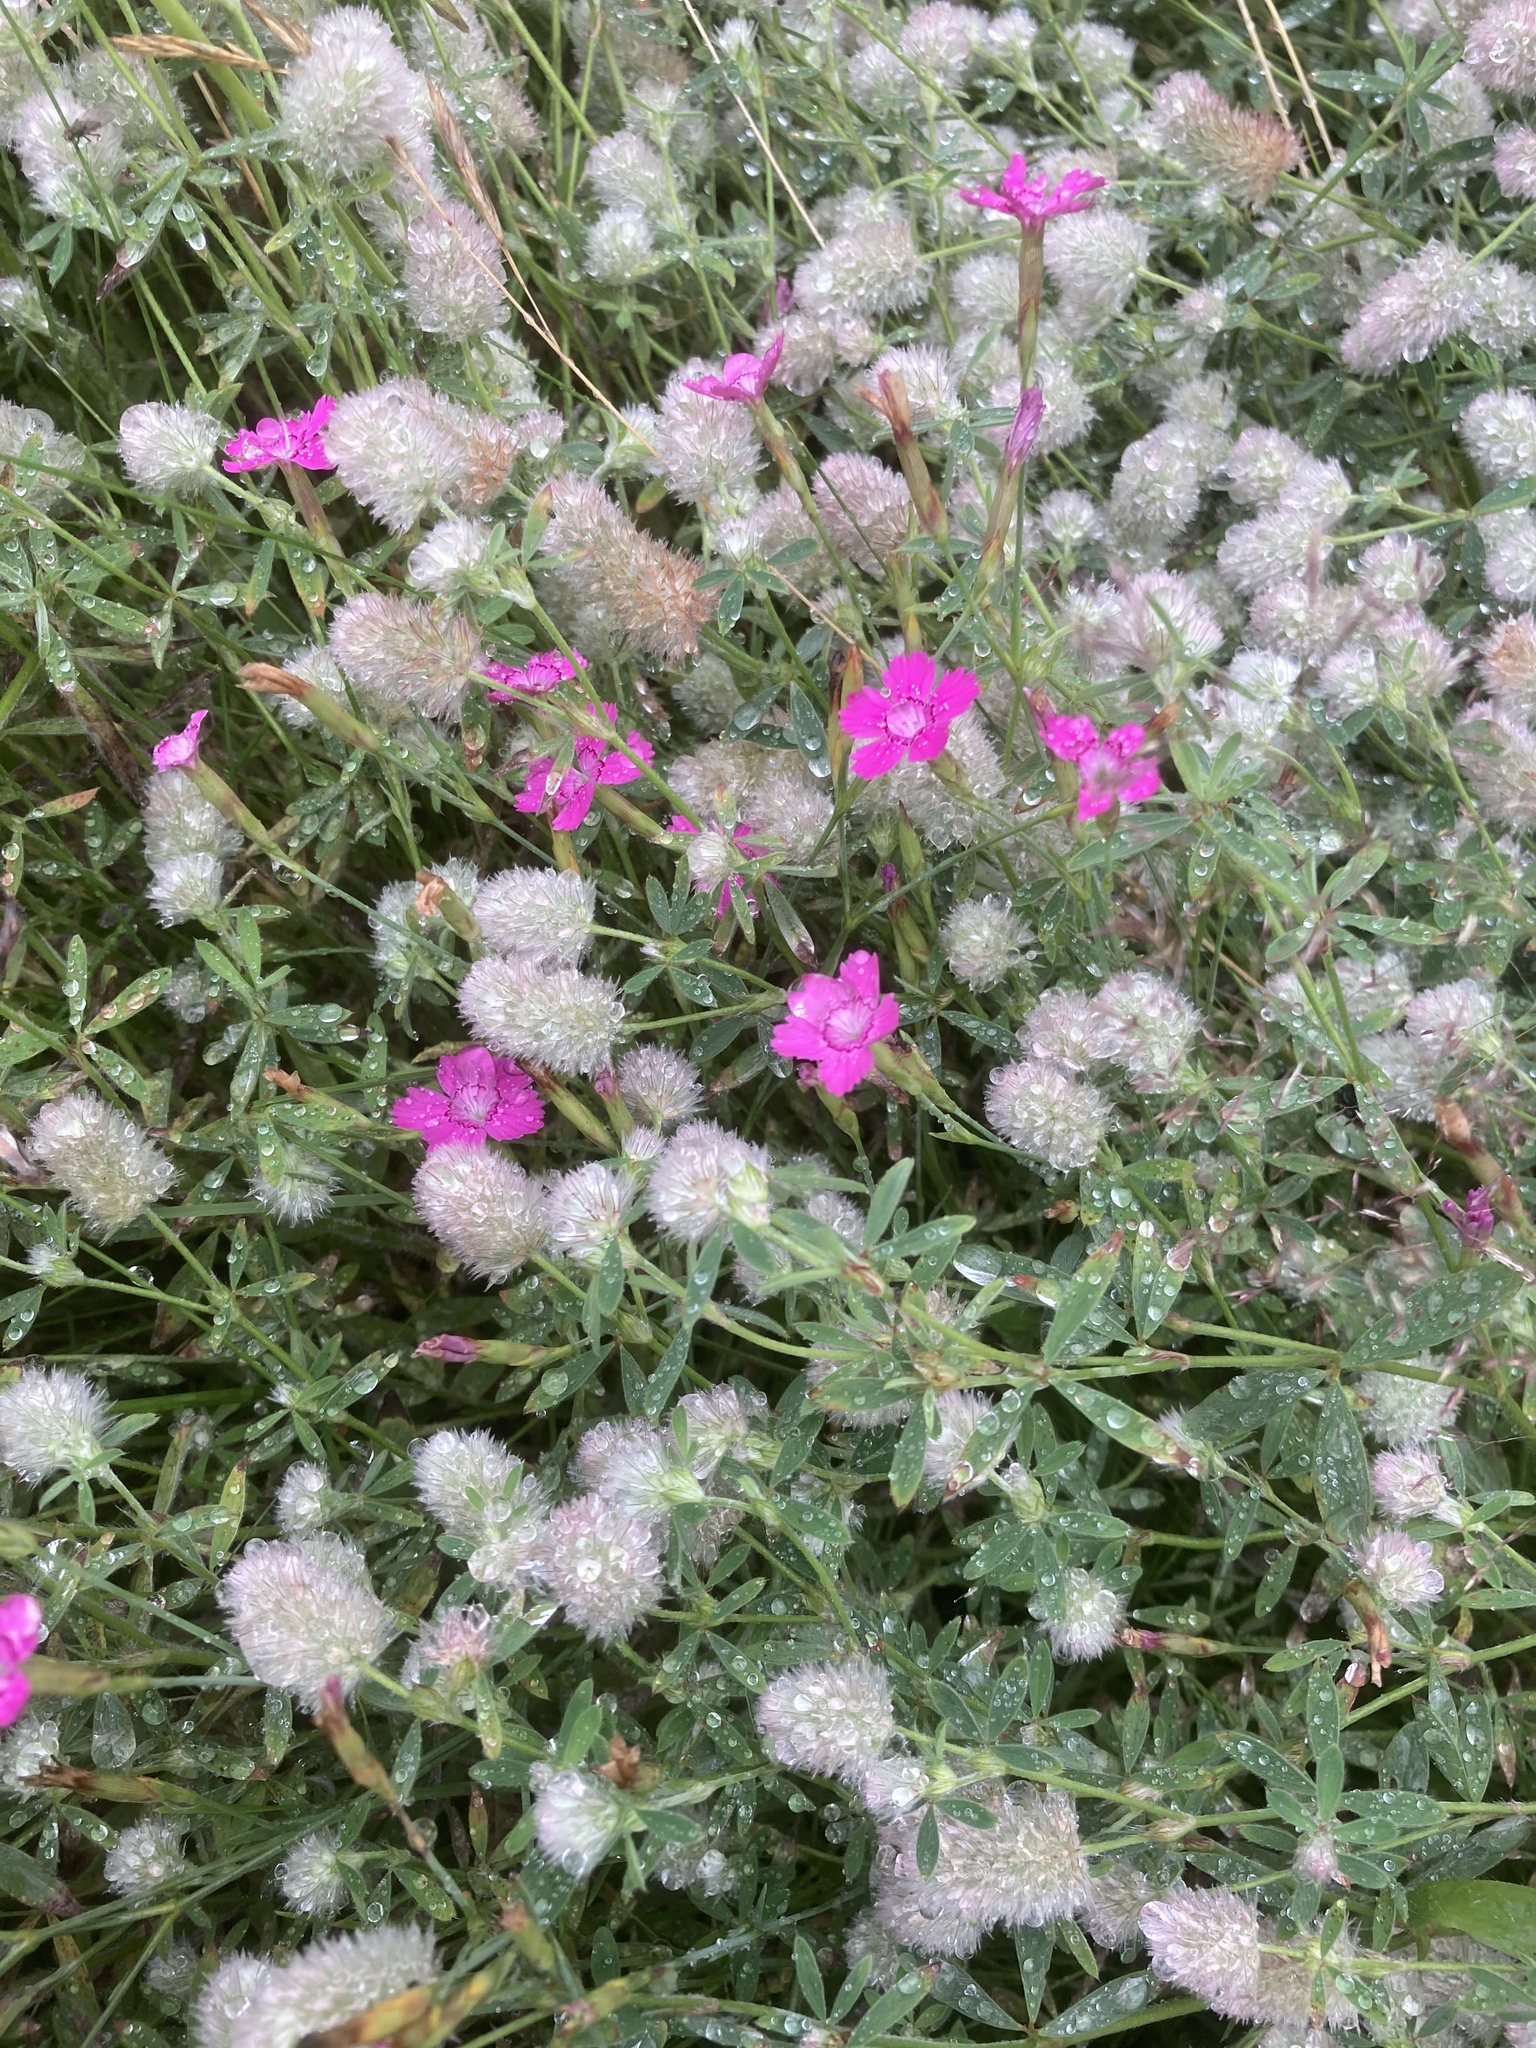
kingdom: Plantae
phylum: Tracheophyta
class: Magnoliopsida
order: Fabales
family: Fabaceae
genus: Trifolium
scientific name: Trifolium arvense
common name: Hare's-foot clover
